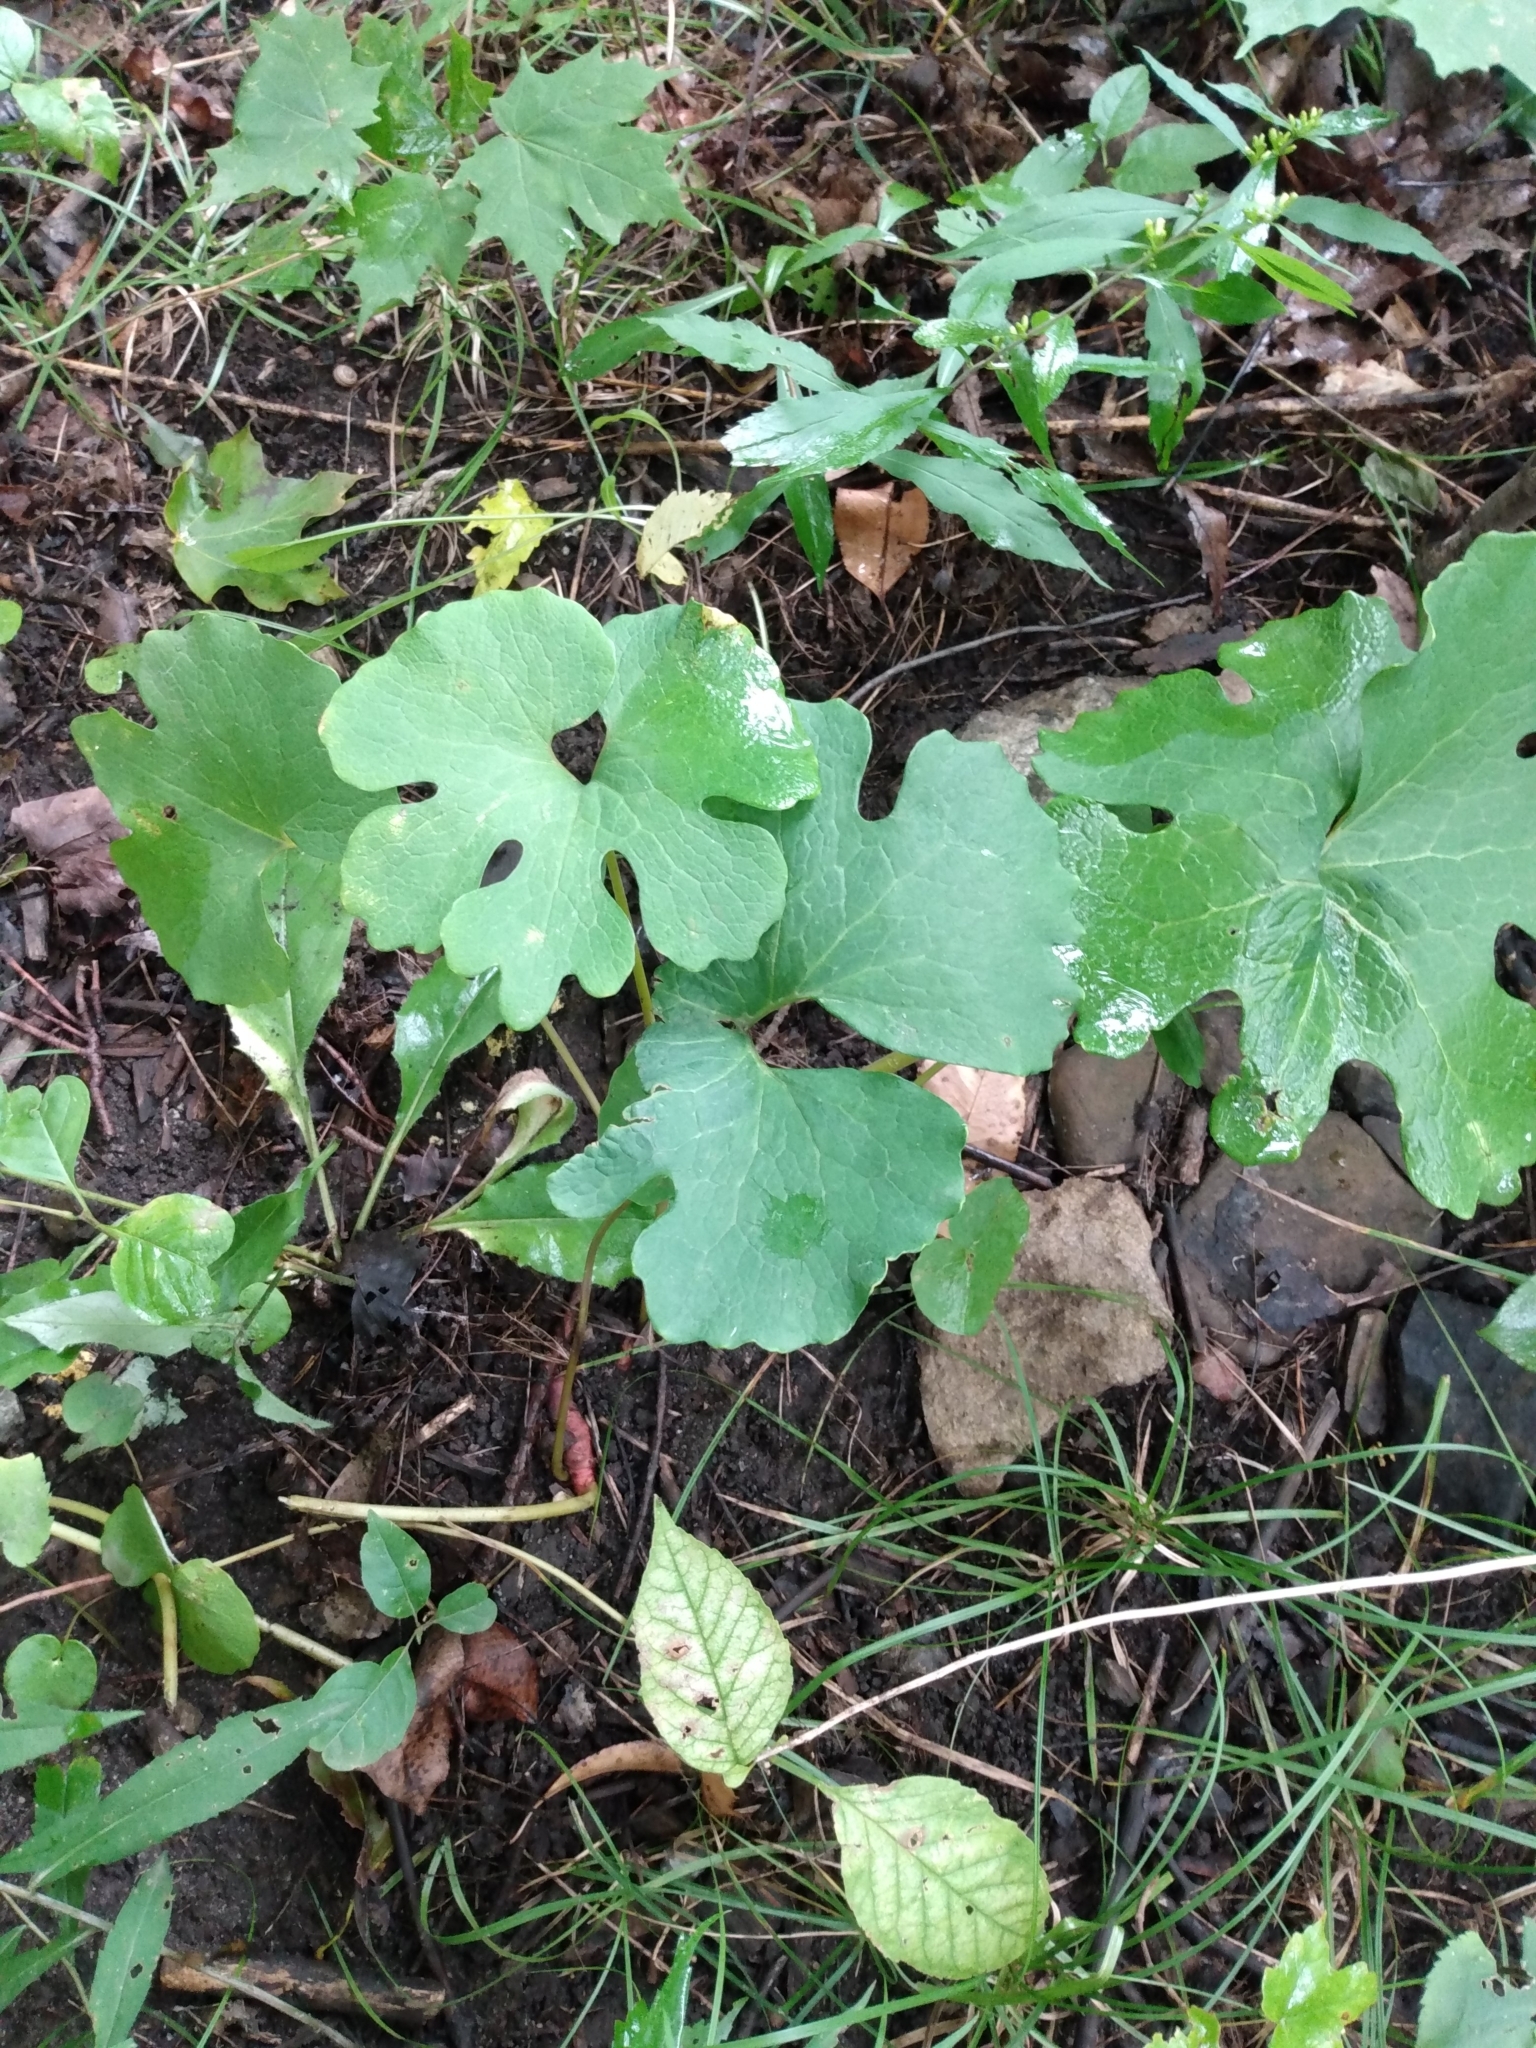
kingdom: Plantae
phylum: Tracheophyta
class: Magnoliopsida
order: Ranunculales
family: Papaveraceae
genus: Sanguinaria
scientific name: Sanguinaria canadensis
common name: Bloodroot
